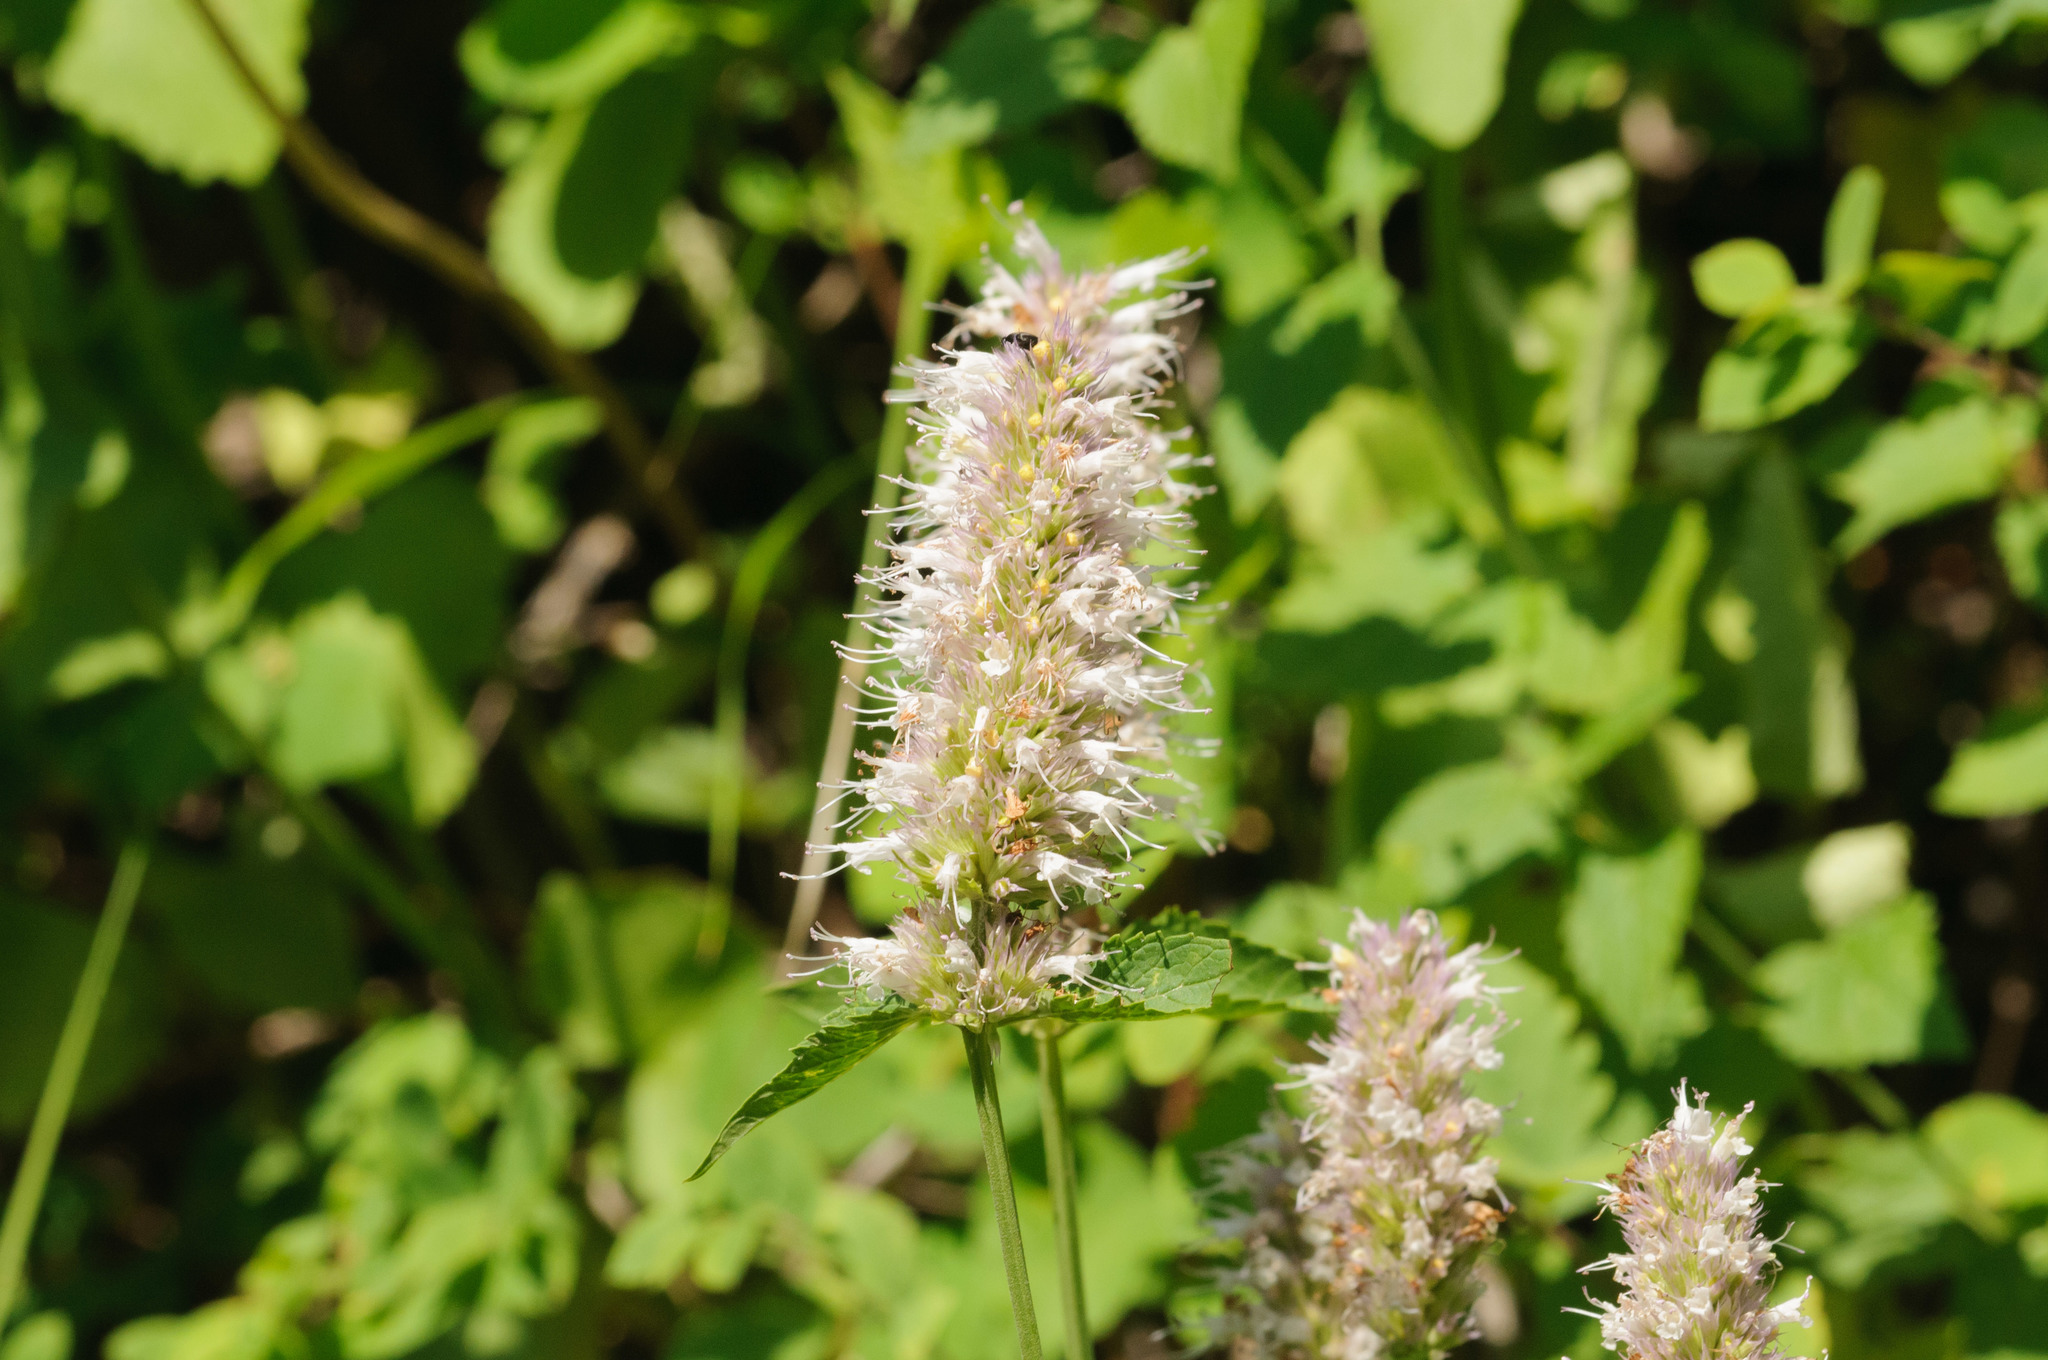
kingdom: Plantae
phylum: Tracheophyta
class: Magnoliopsida
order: Lamiales
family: Lamiaceae
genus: Agastache
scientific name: Agastache urticifolia
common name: Horsemint giant hyssop
